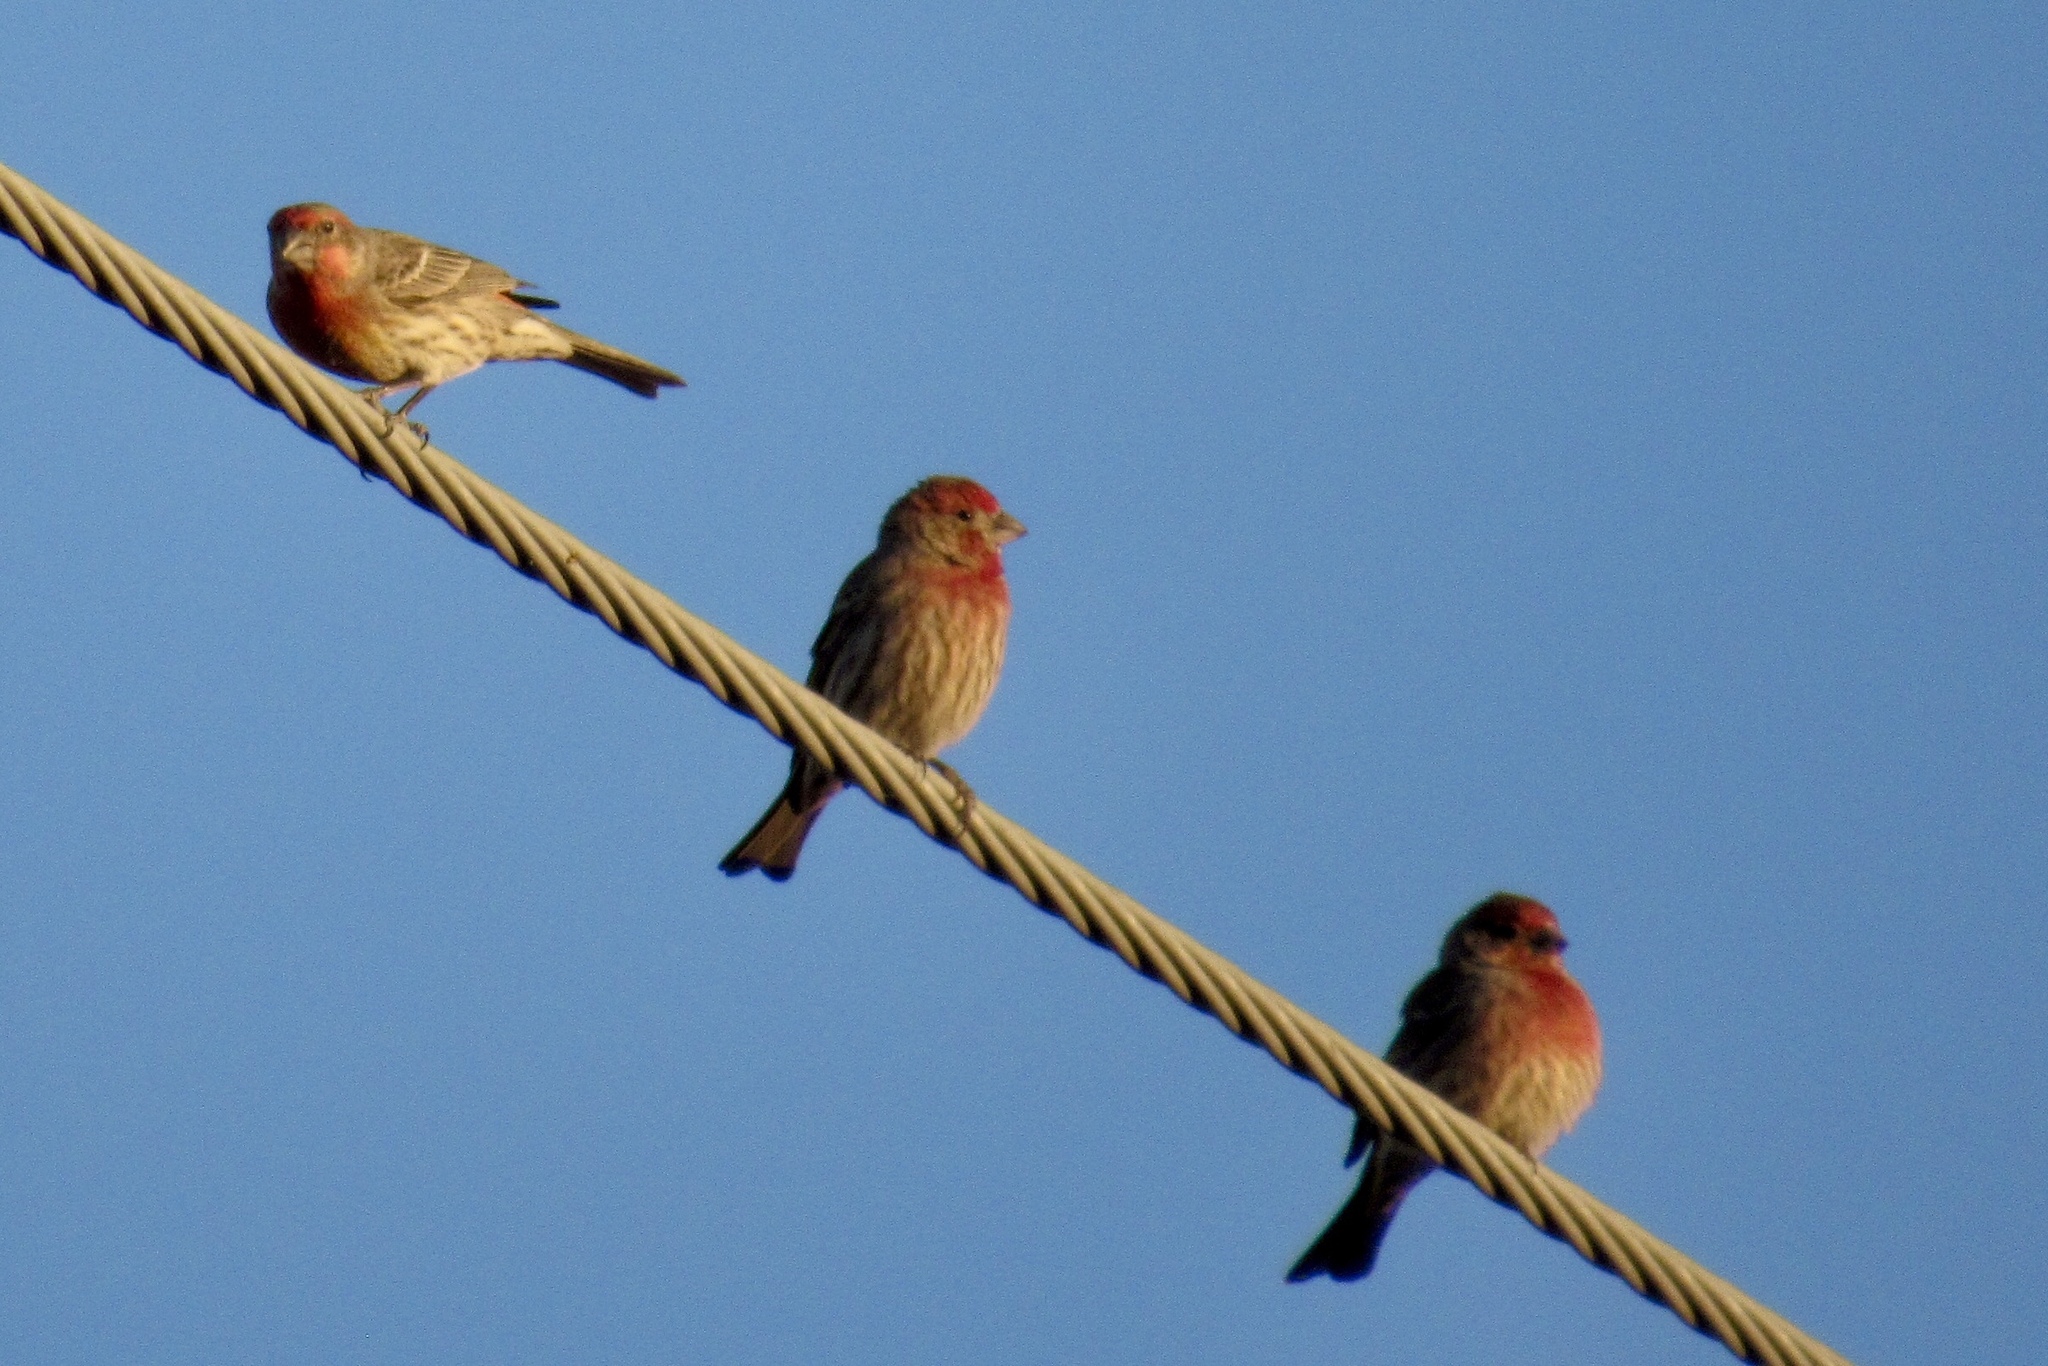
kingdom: Animalia
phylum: Chordata
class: Aves
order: Passeriformes
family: Fringillidae
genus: Haemorhous
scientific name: Haemorhous mexicanus
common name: House finch
